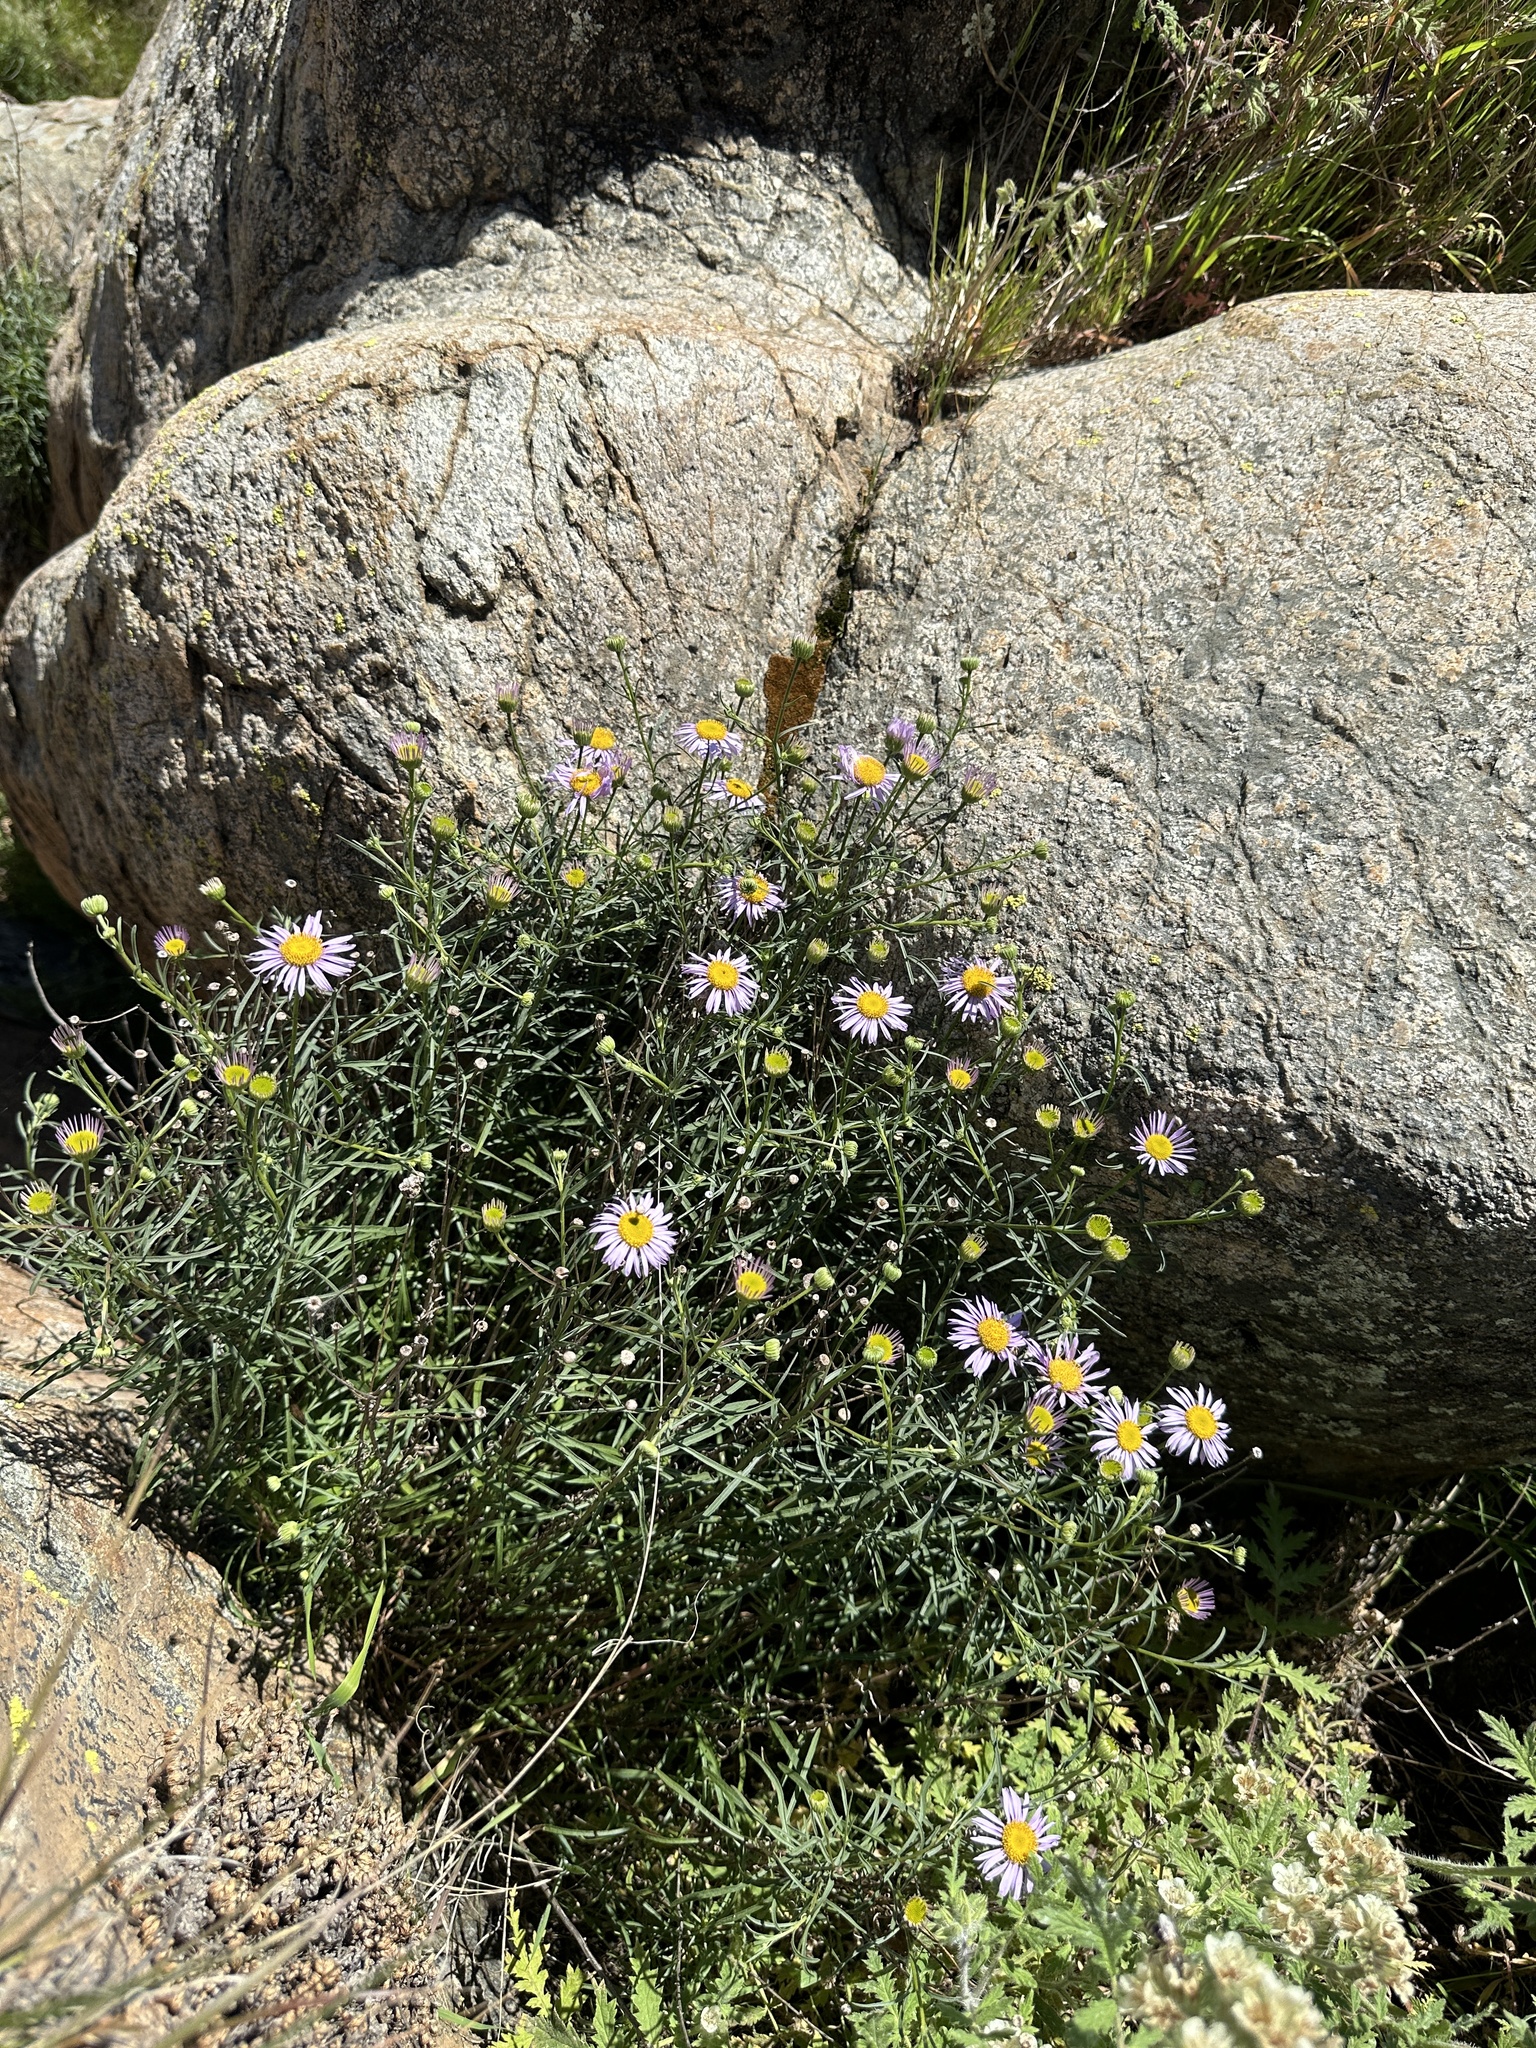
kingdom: Plantae
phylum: Tracheophyta
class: Magnoliopsida
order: Asterales
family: Asteraceae
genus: Erigeron
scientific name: Erigeron foliosus
